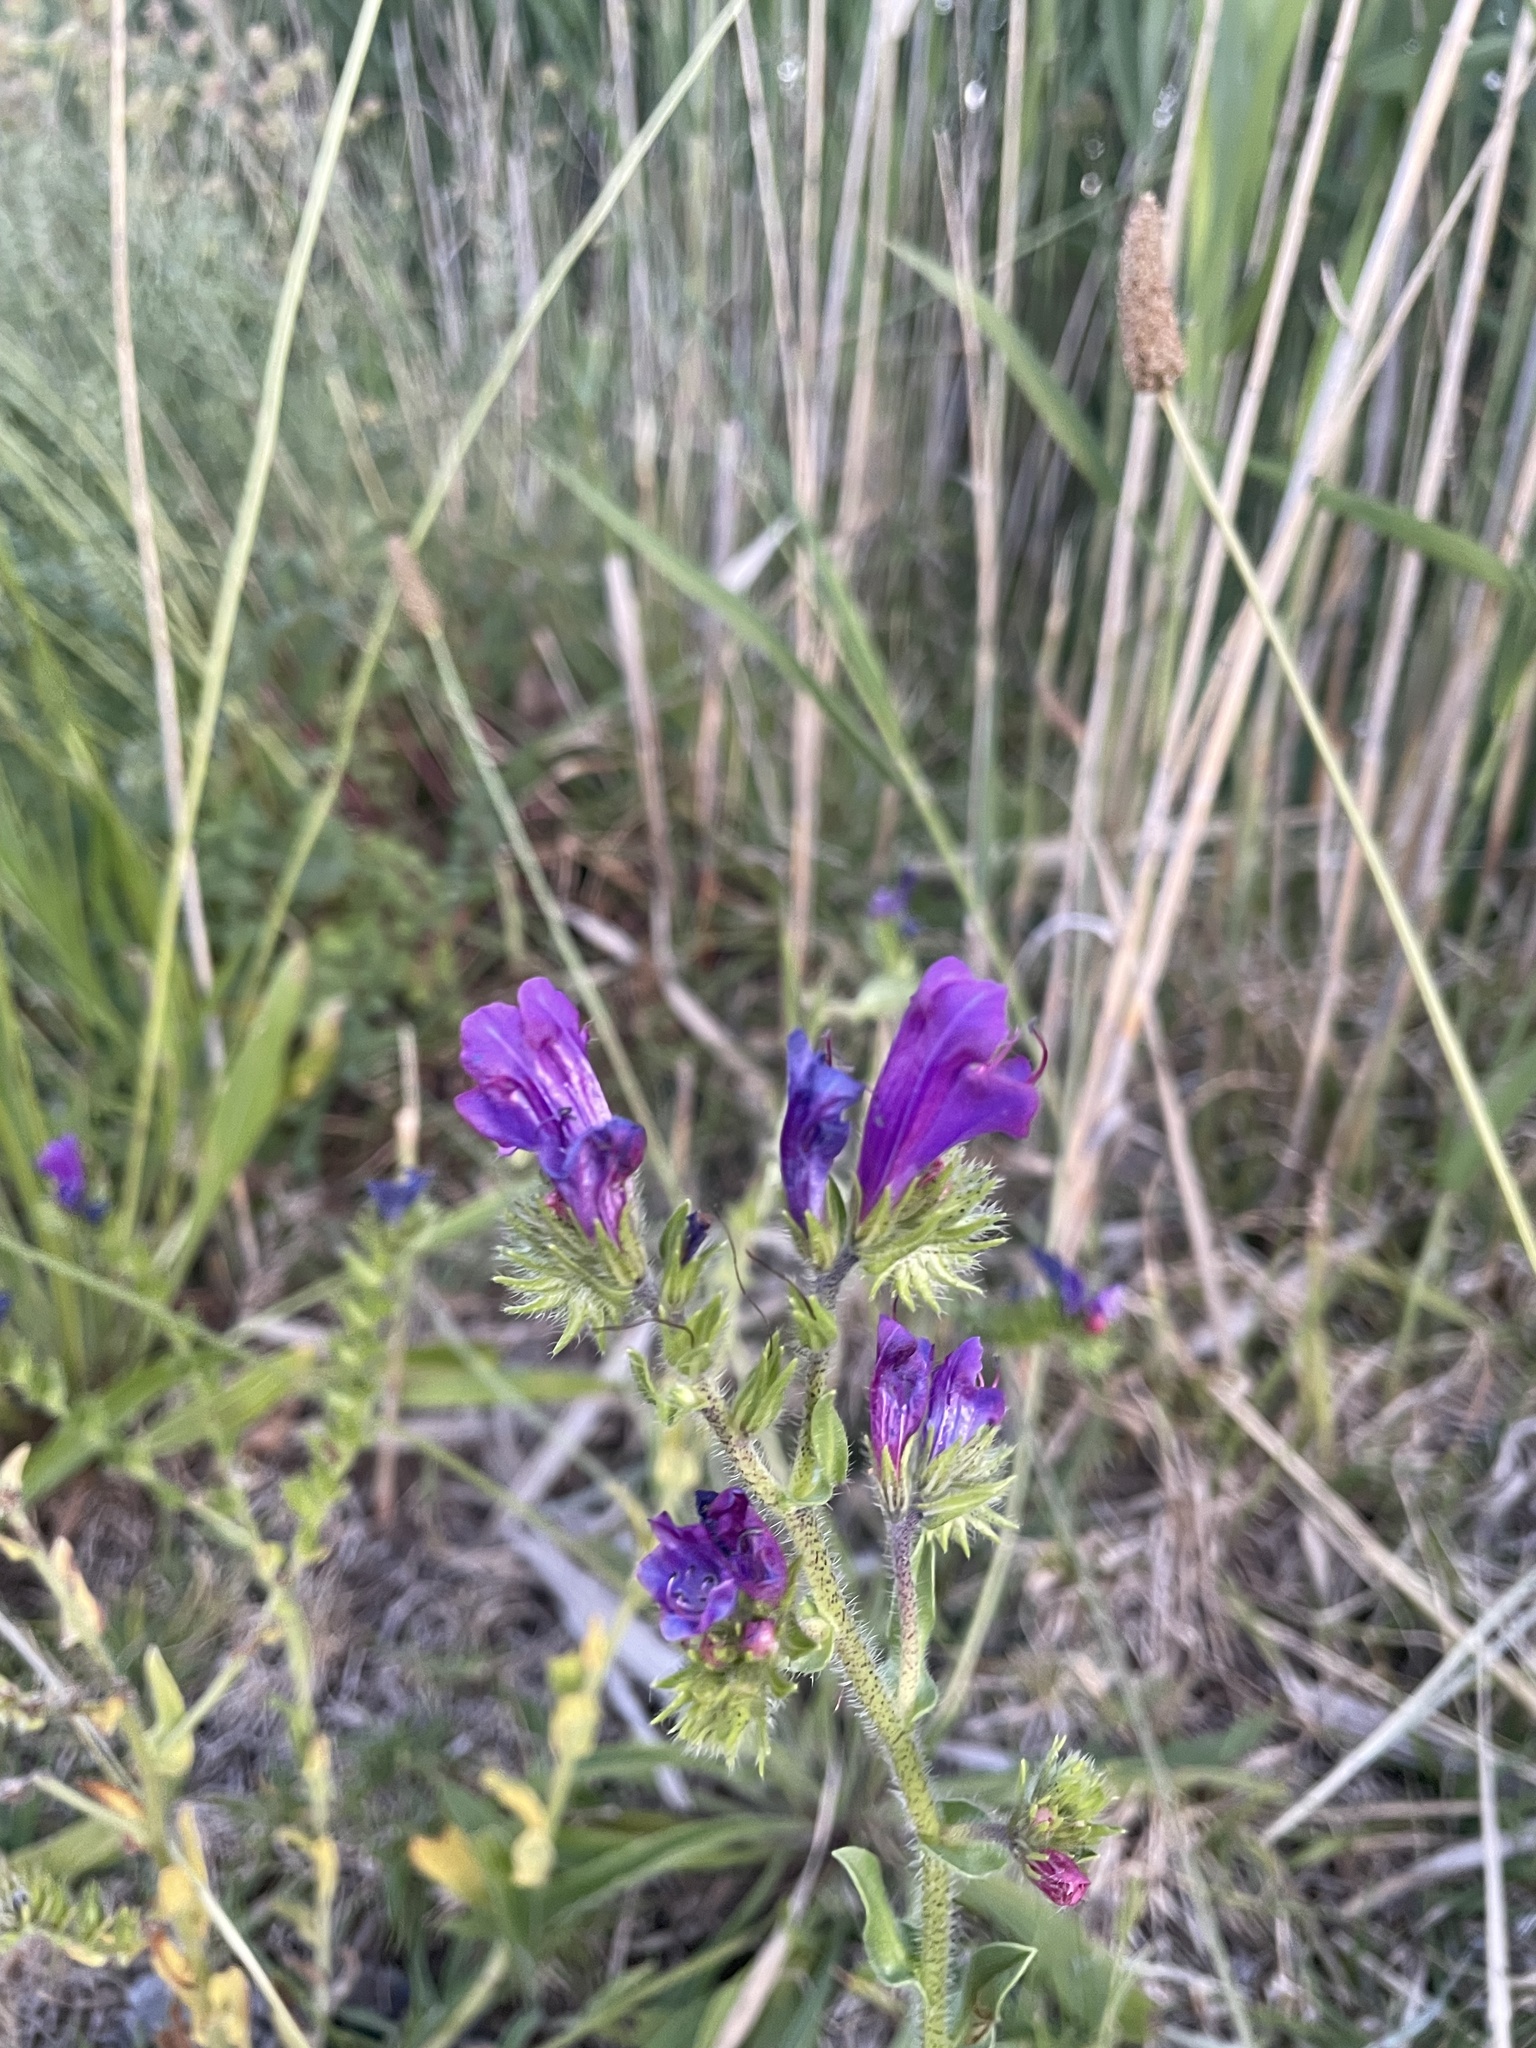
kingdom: Plantae
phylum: Tracheophyta
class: Magnoliopsida
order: Boraginales
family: Boraginaceae
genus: Echium
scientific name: Echium plantagineum
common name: Purple viper's-bugloss
